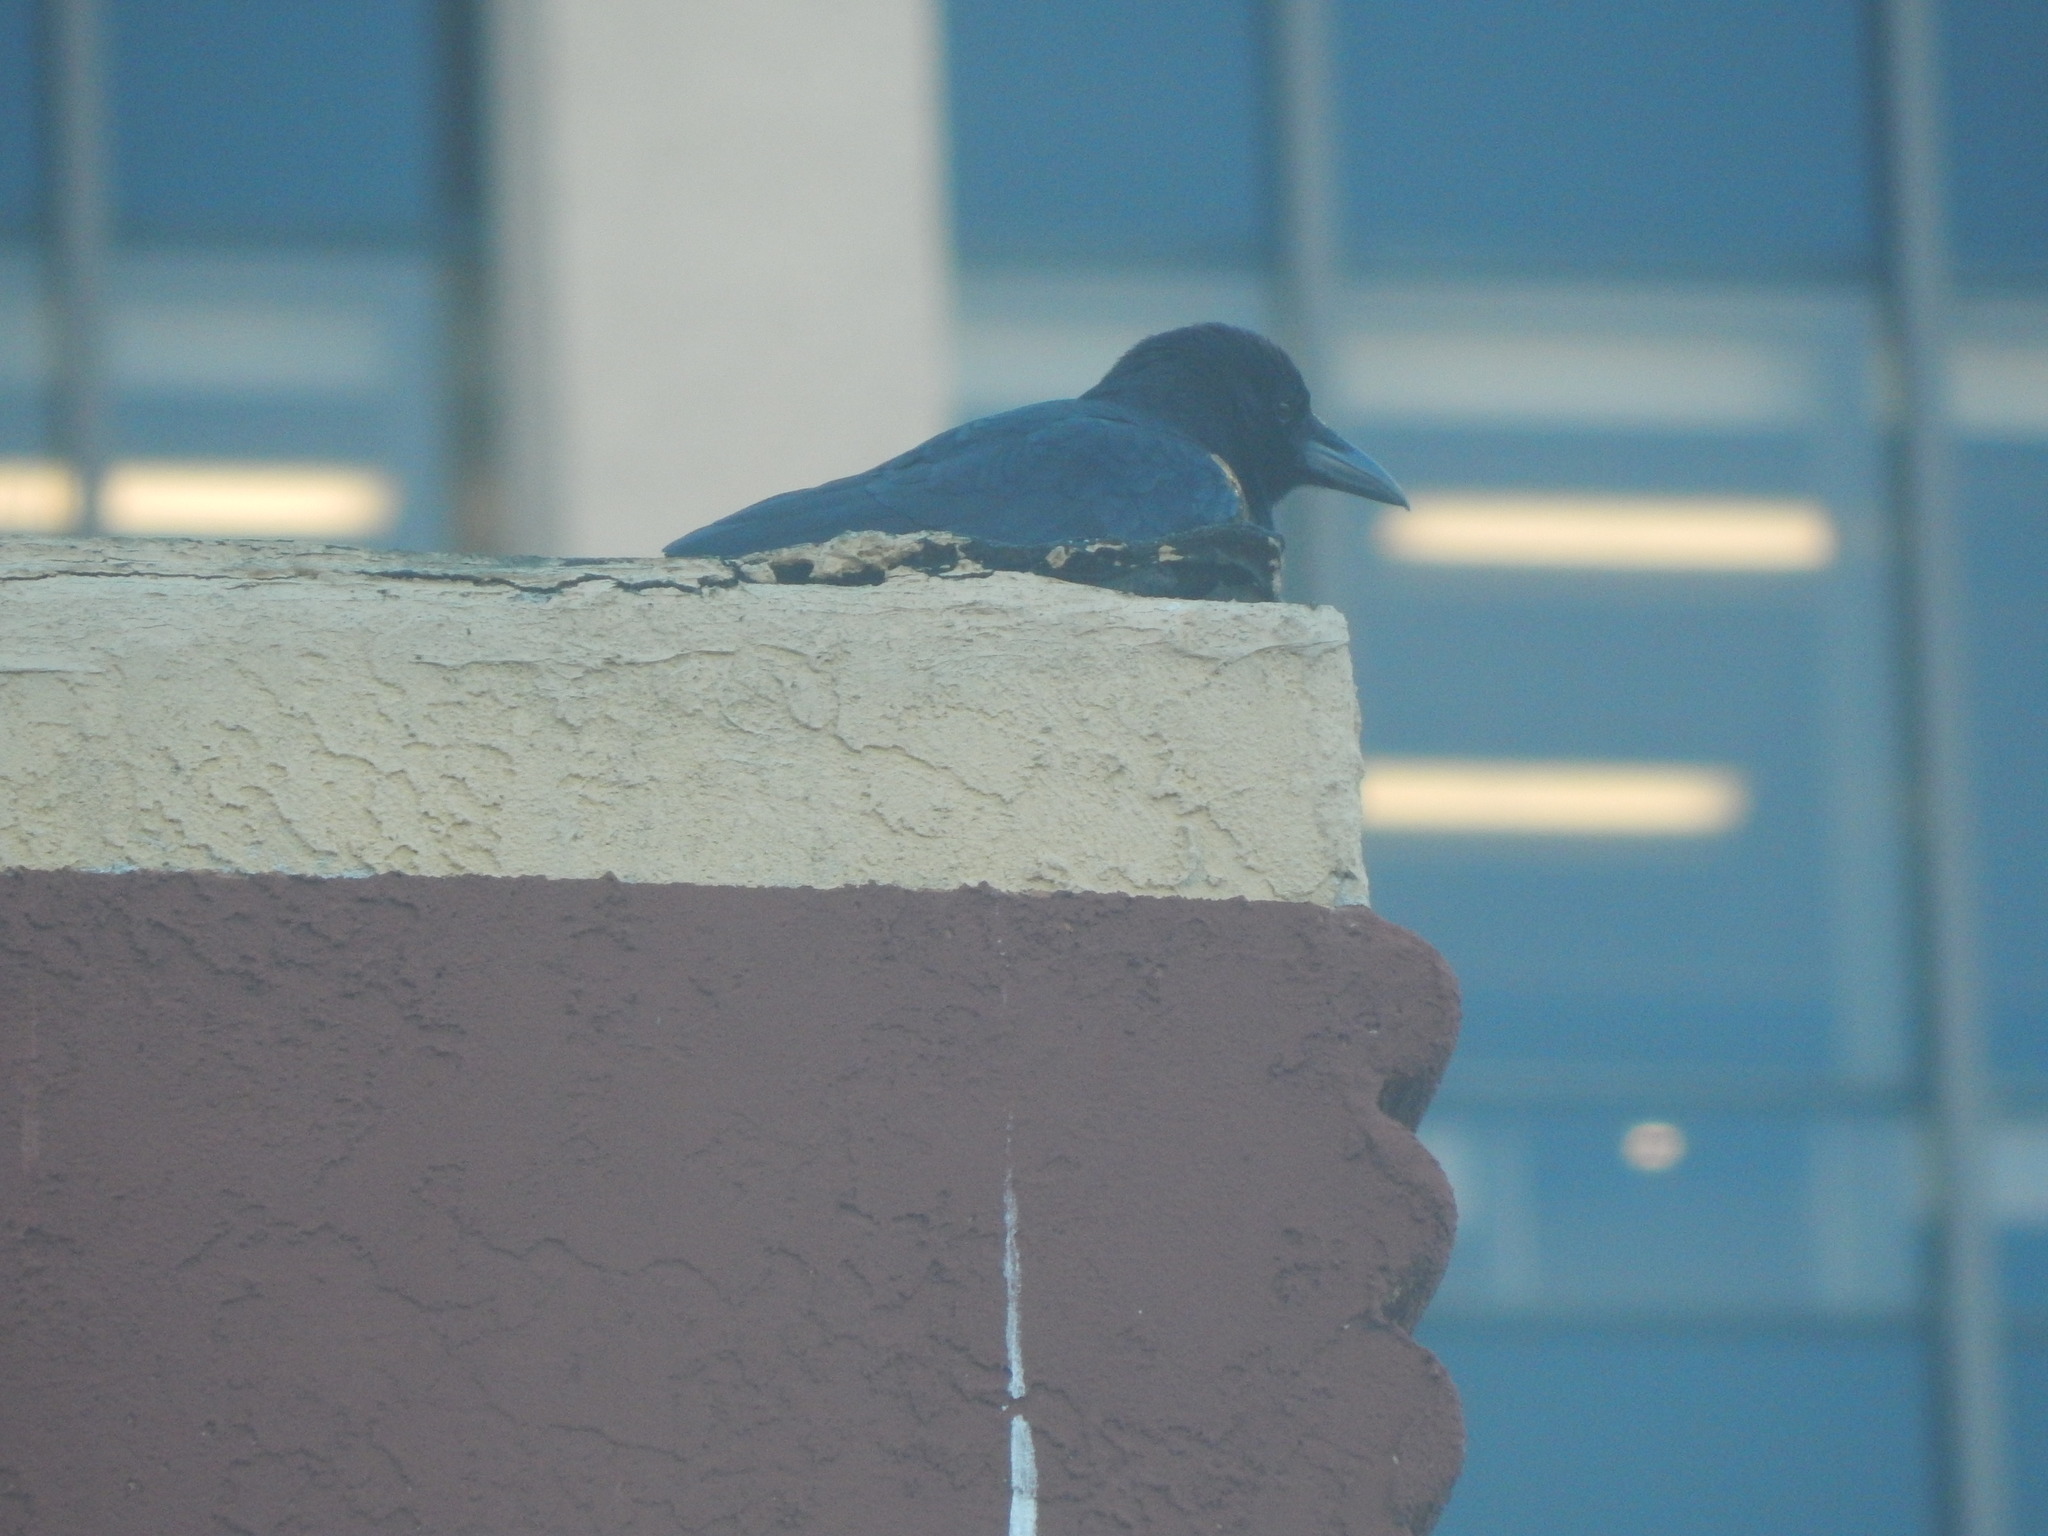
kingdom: Animalia
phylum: Chordata
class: Aves
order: Passeriformes
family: Corvidae
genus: Corvus
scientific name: Corvus brachyrhynchos
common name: American crow
